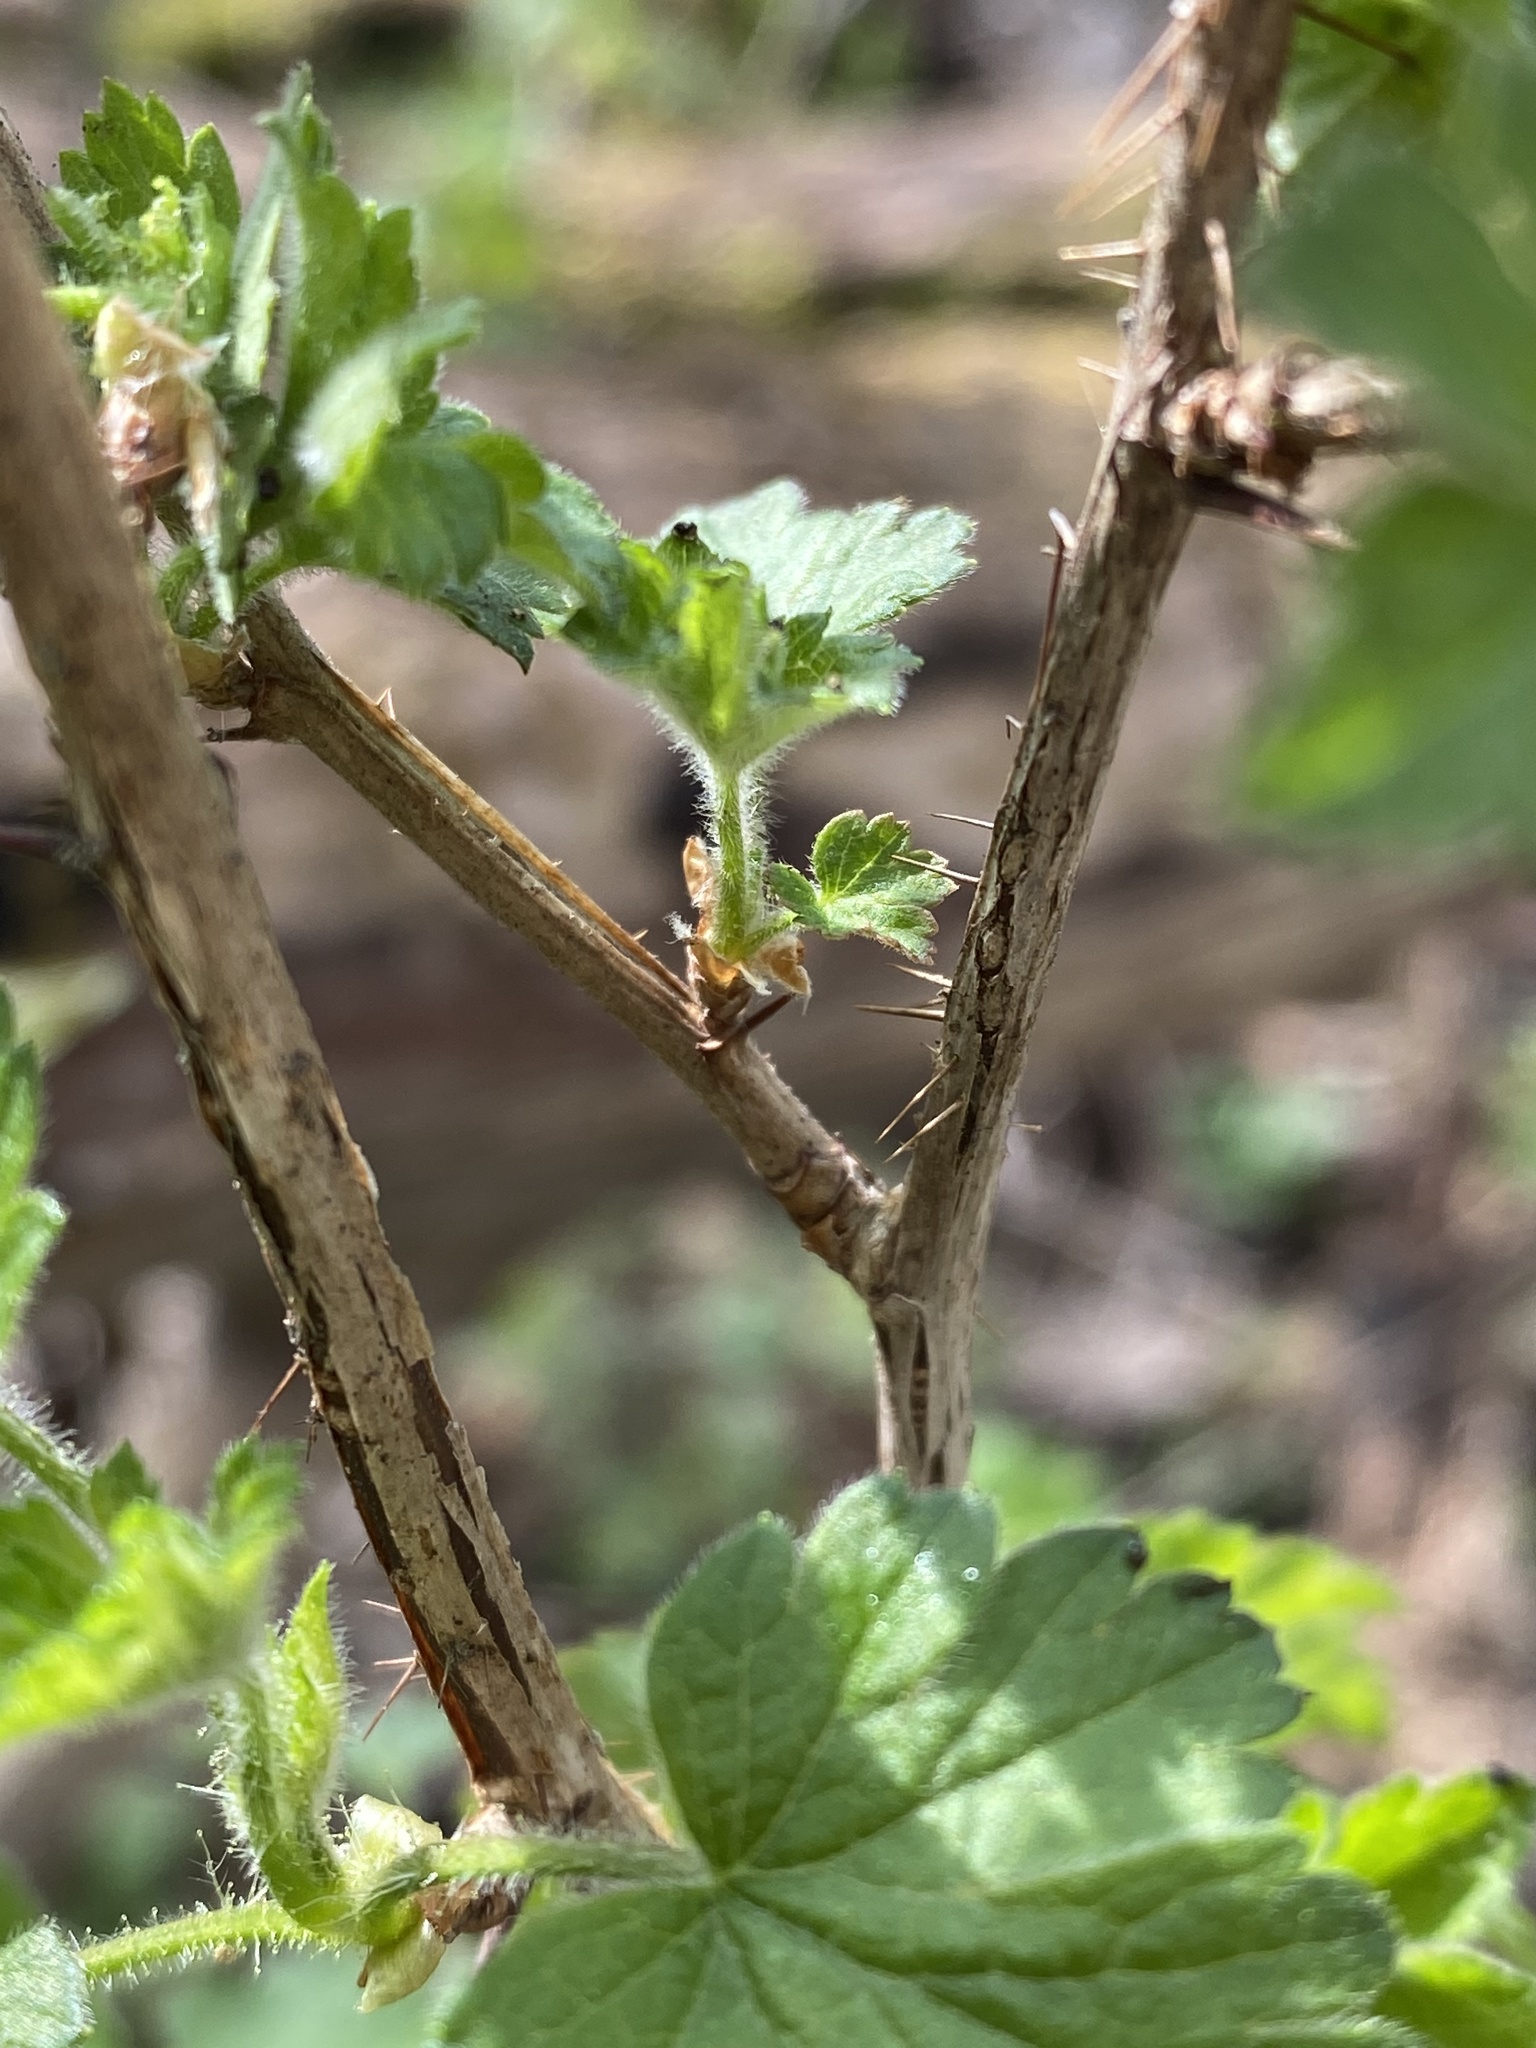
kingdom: Plantae
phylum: Tracheophyta
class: Magnoliopsida
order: Saxifragales
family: Grossulariaceae
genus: Ribes
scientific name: Ribes cynosbati
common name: American gooseberry
